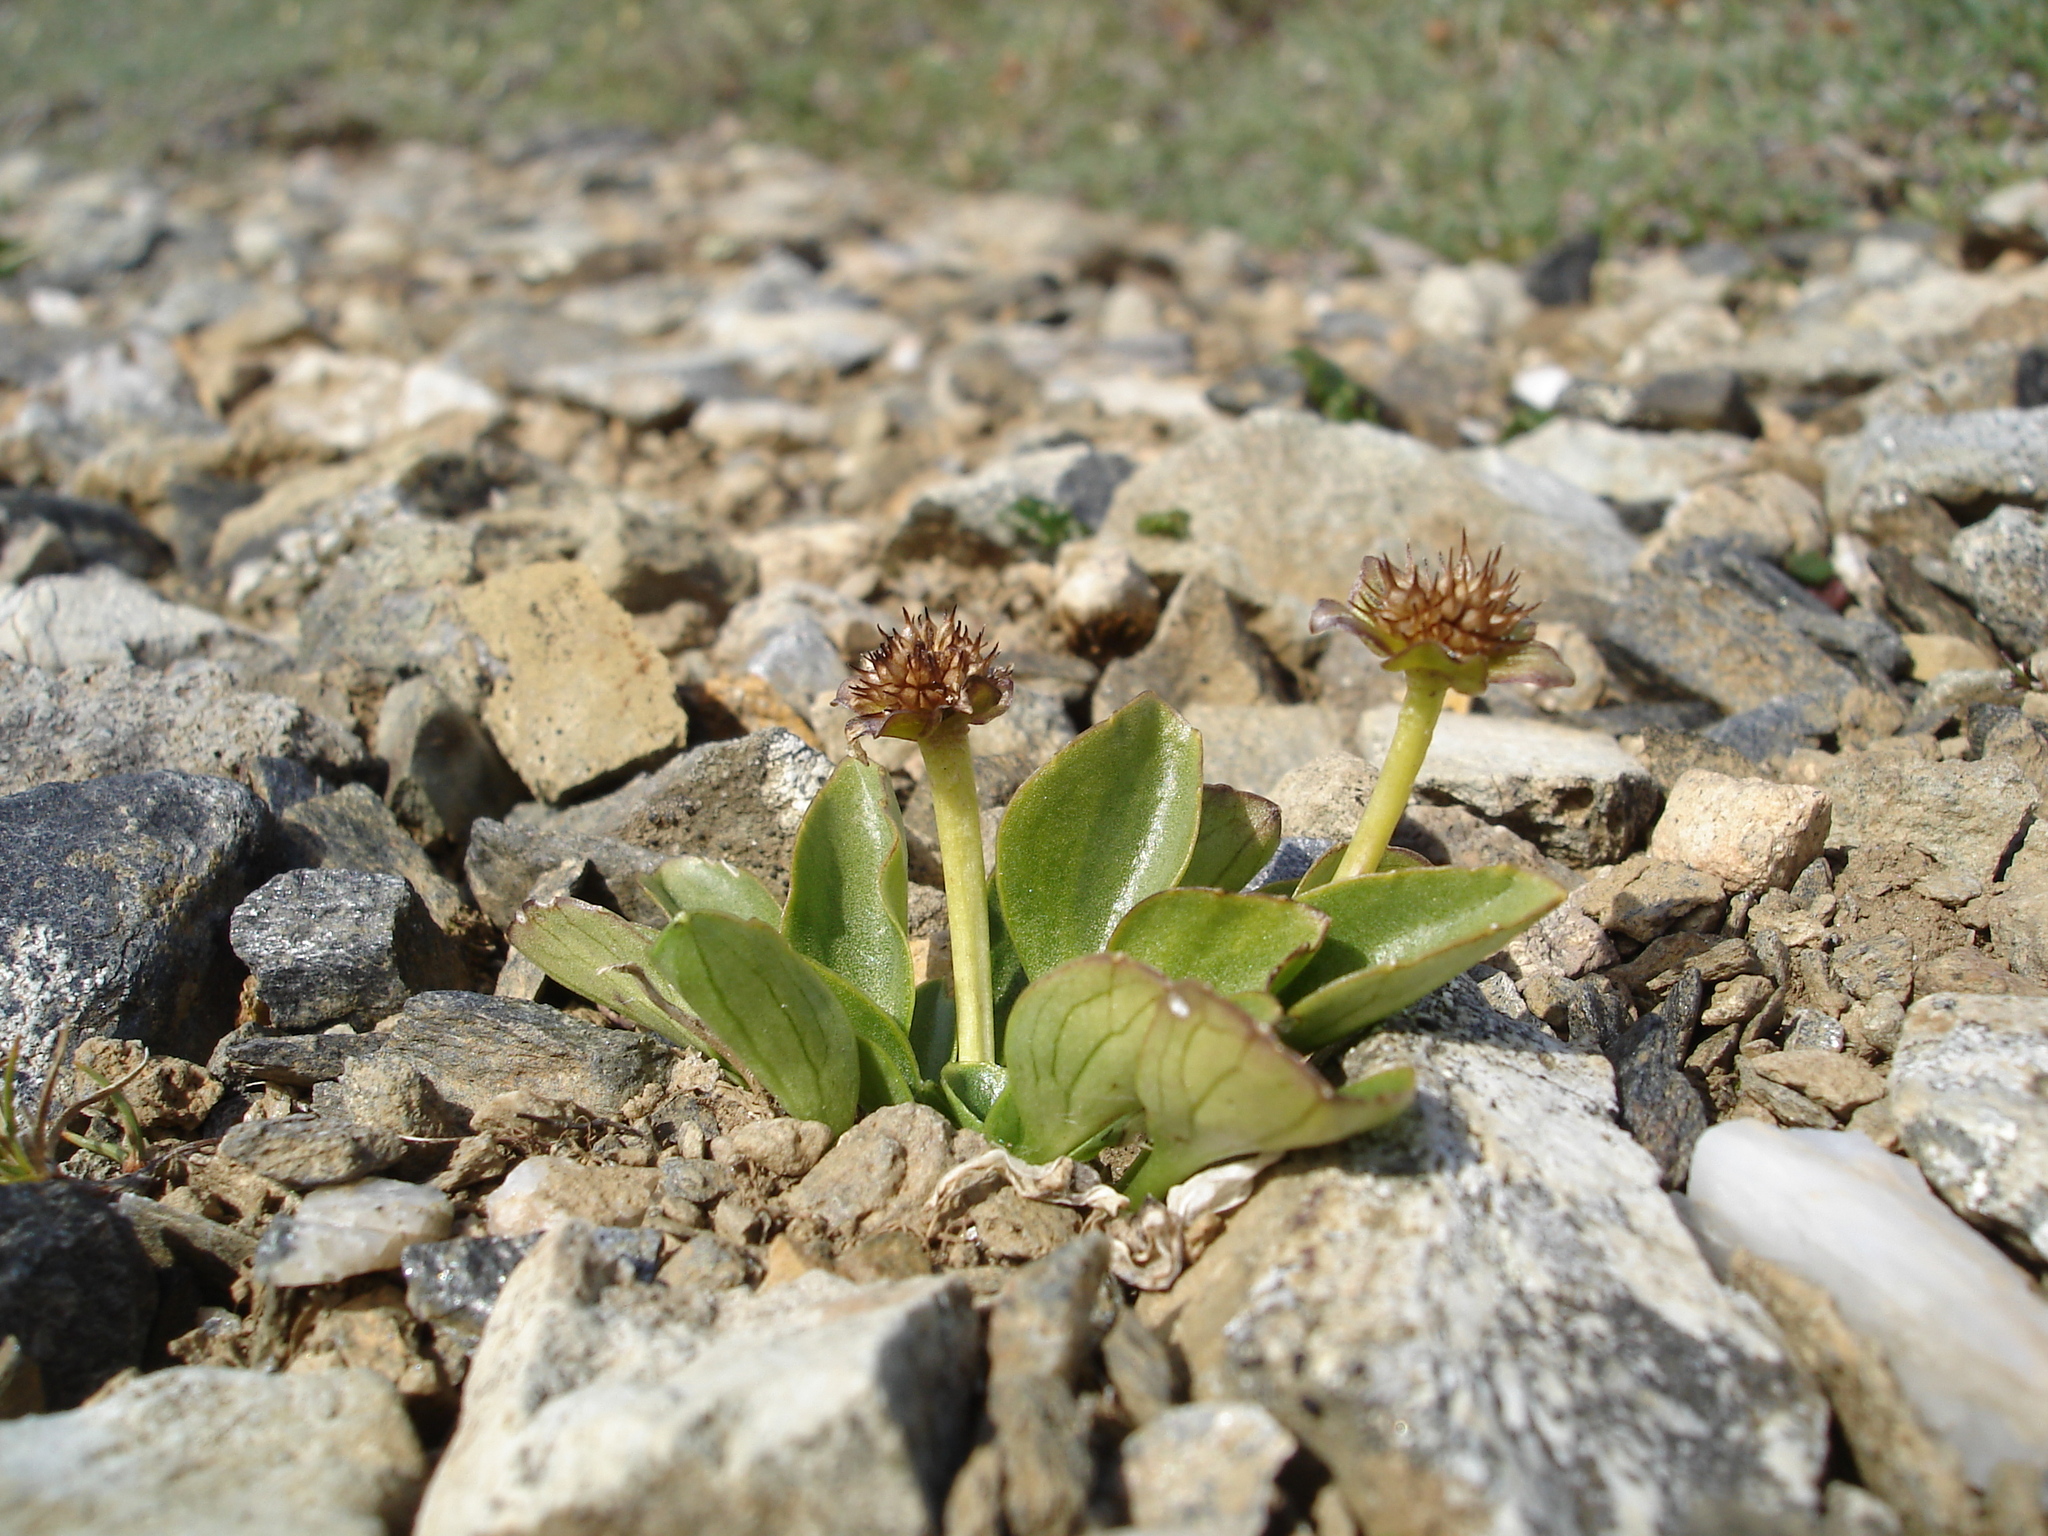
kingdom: Plantae
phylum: Tracheophyta
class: Magnoliopsida
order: Ranunculales
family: Ranunculaceae
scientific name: Ranunculaceae
